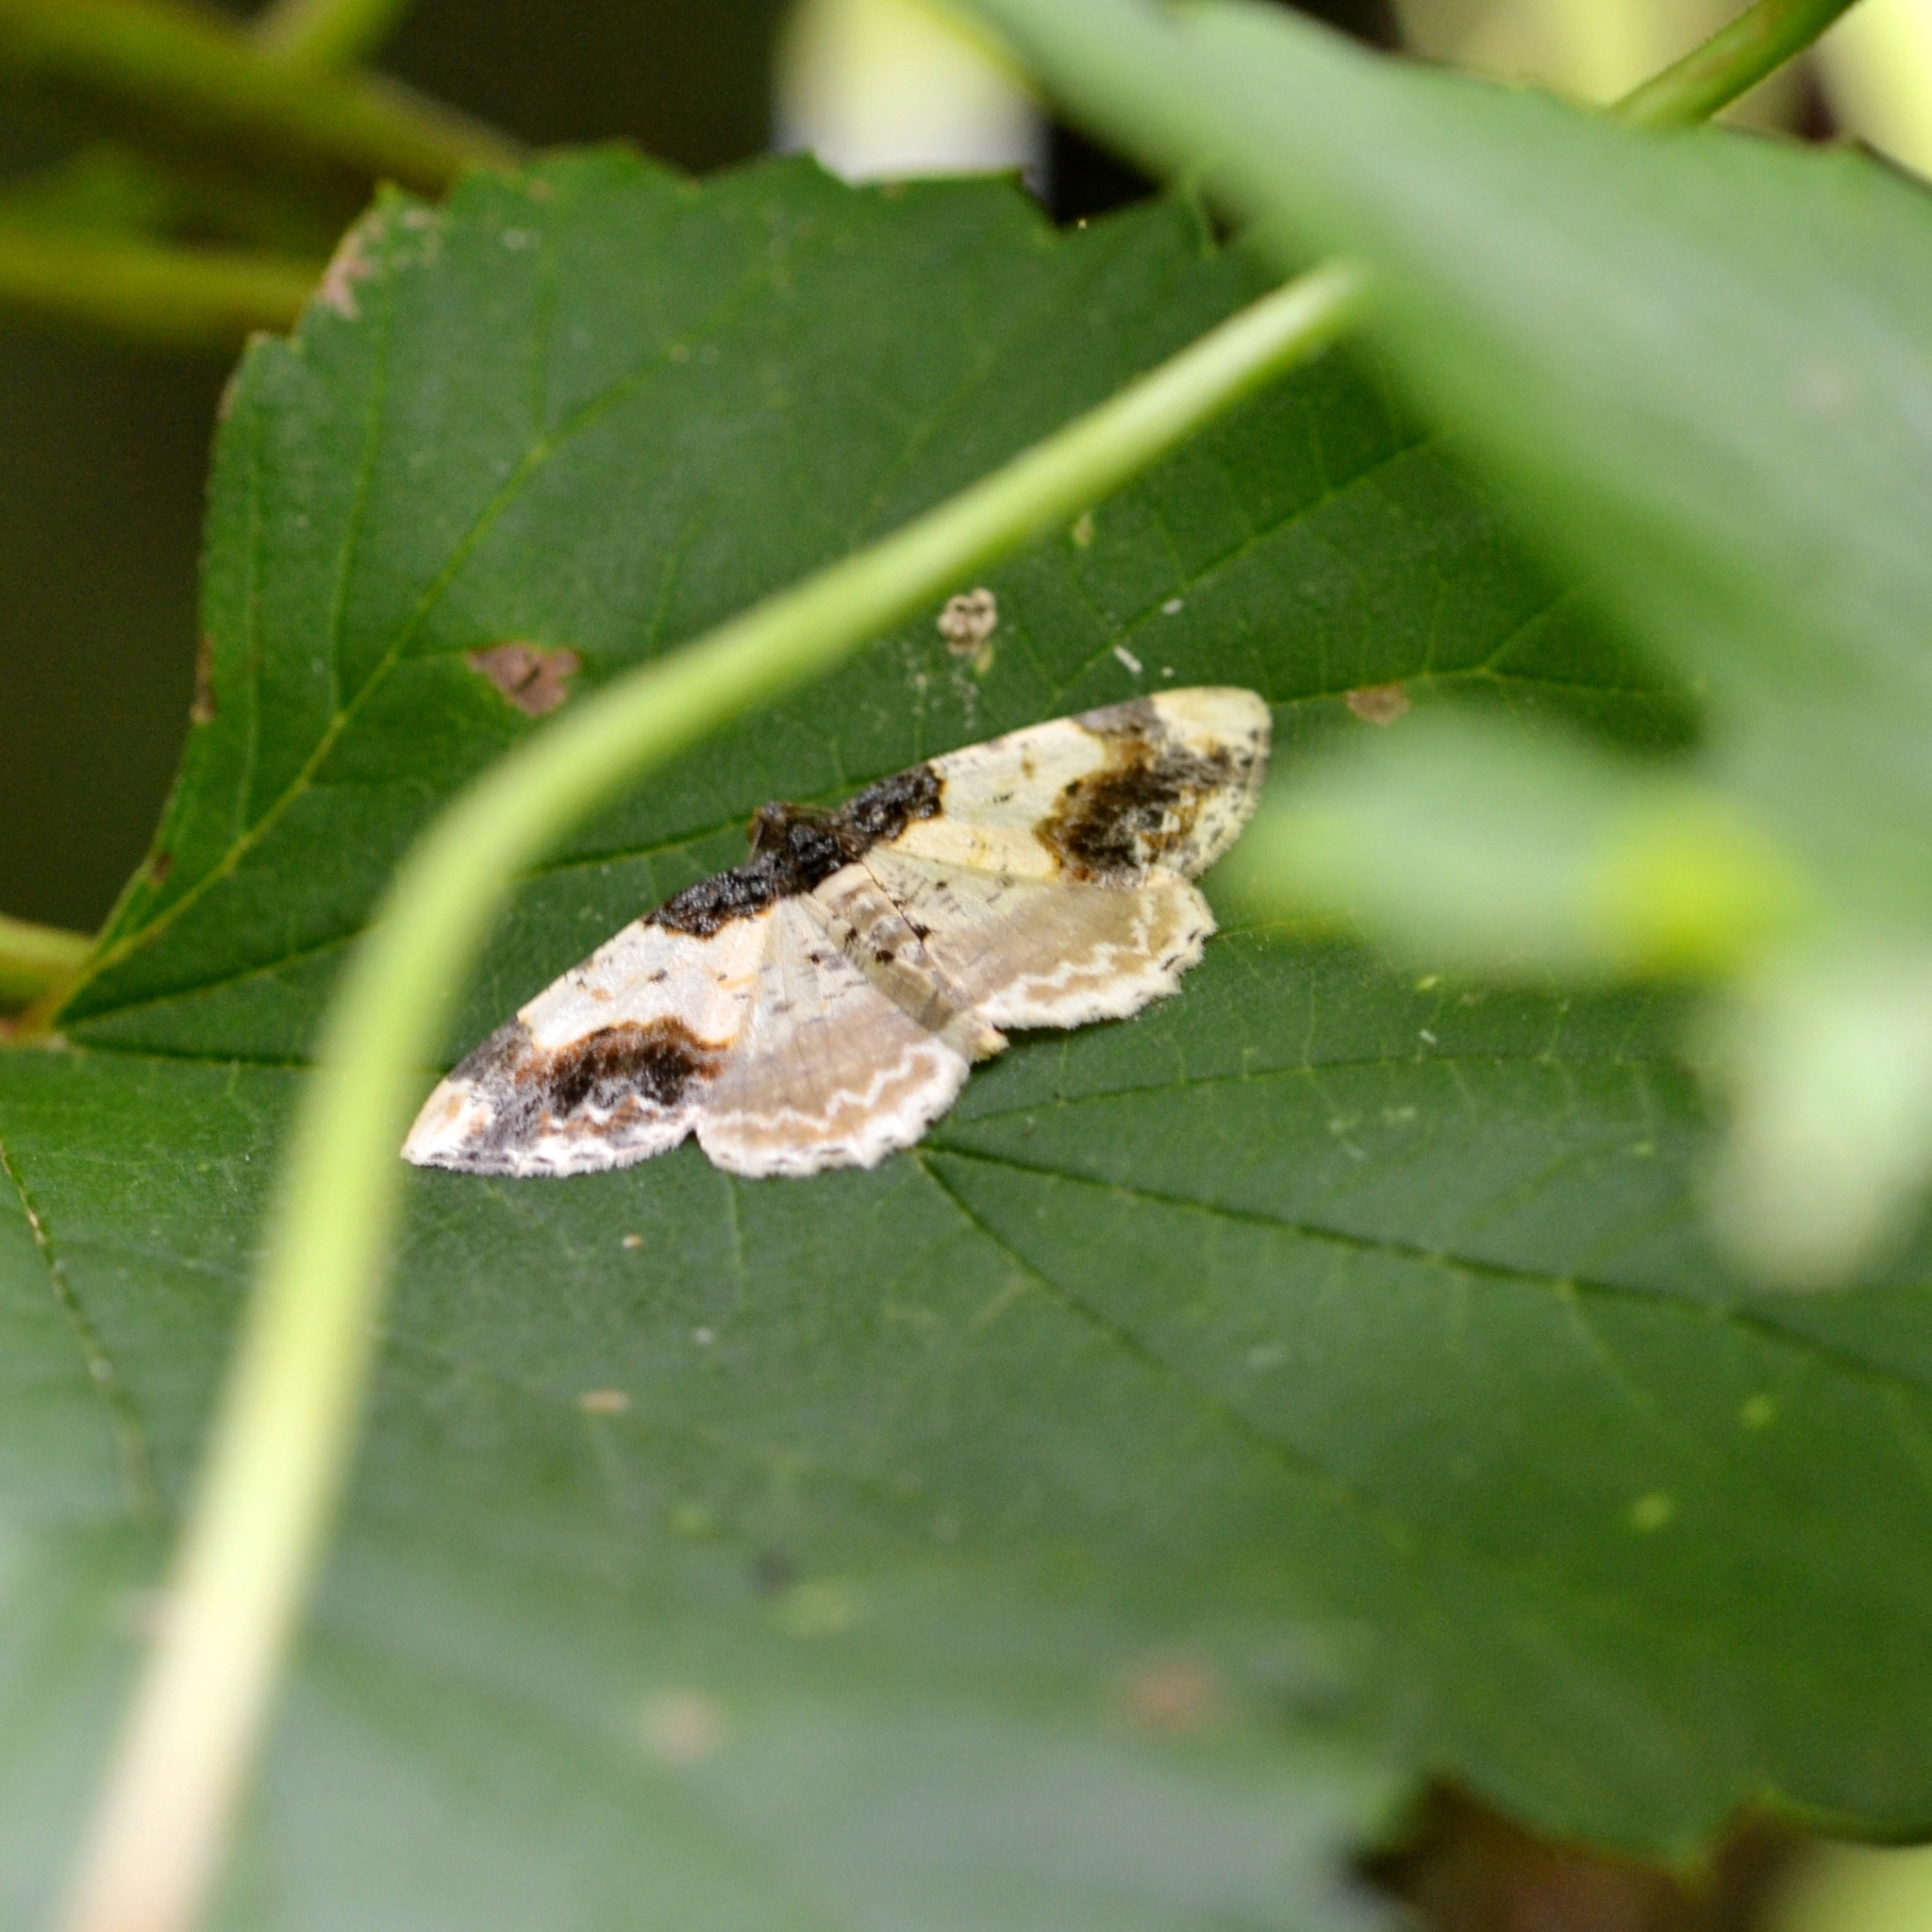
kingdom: Animalia
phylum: Arthropoda
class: Insecta
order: Lepidoptera
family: Geometridae
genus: Ligdia
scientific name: Ligdia adustata
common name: Scorched carpet
